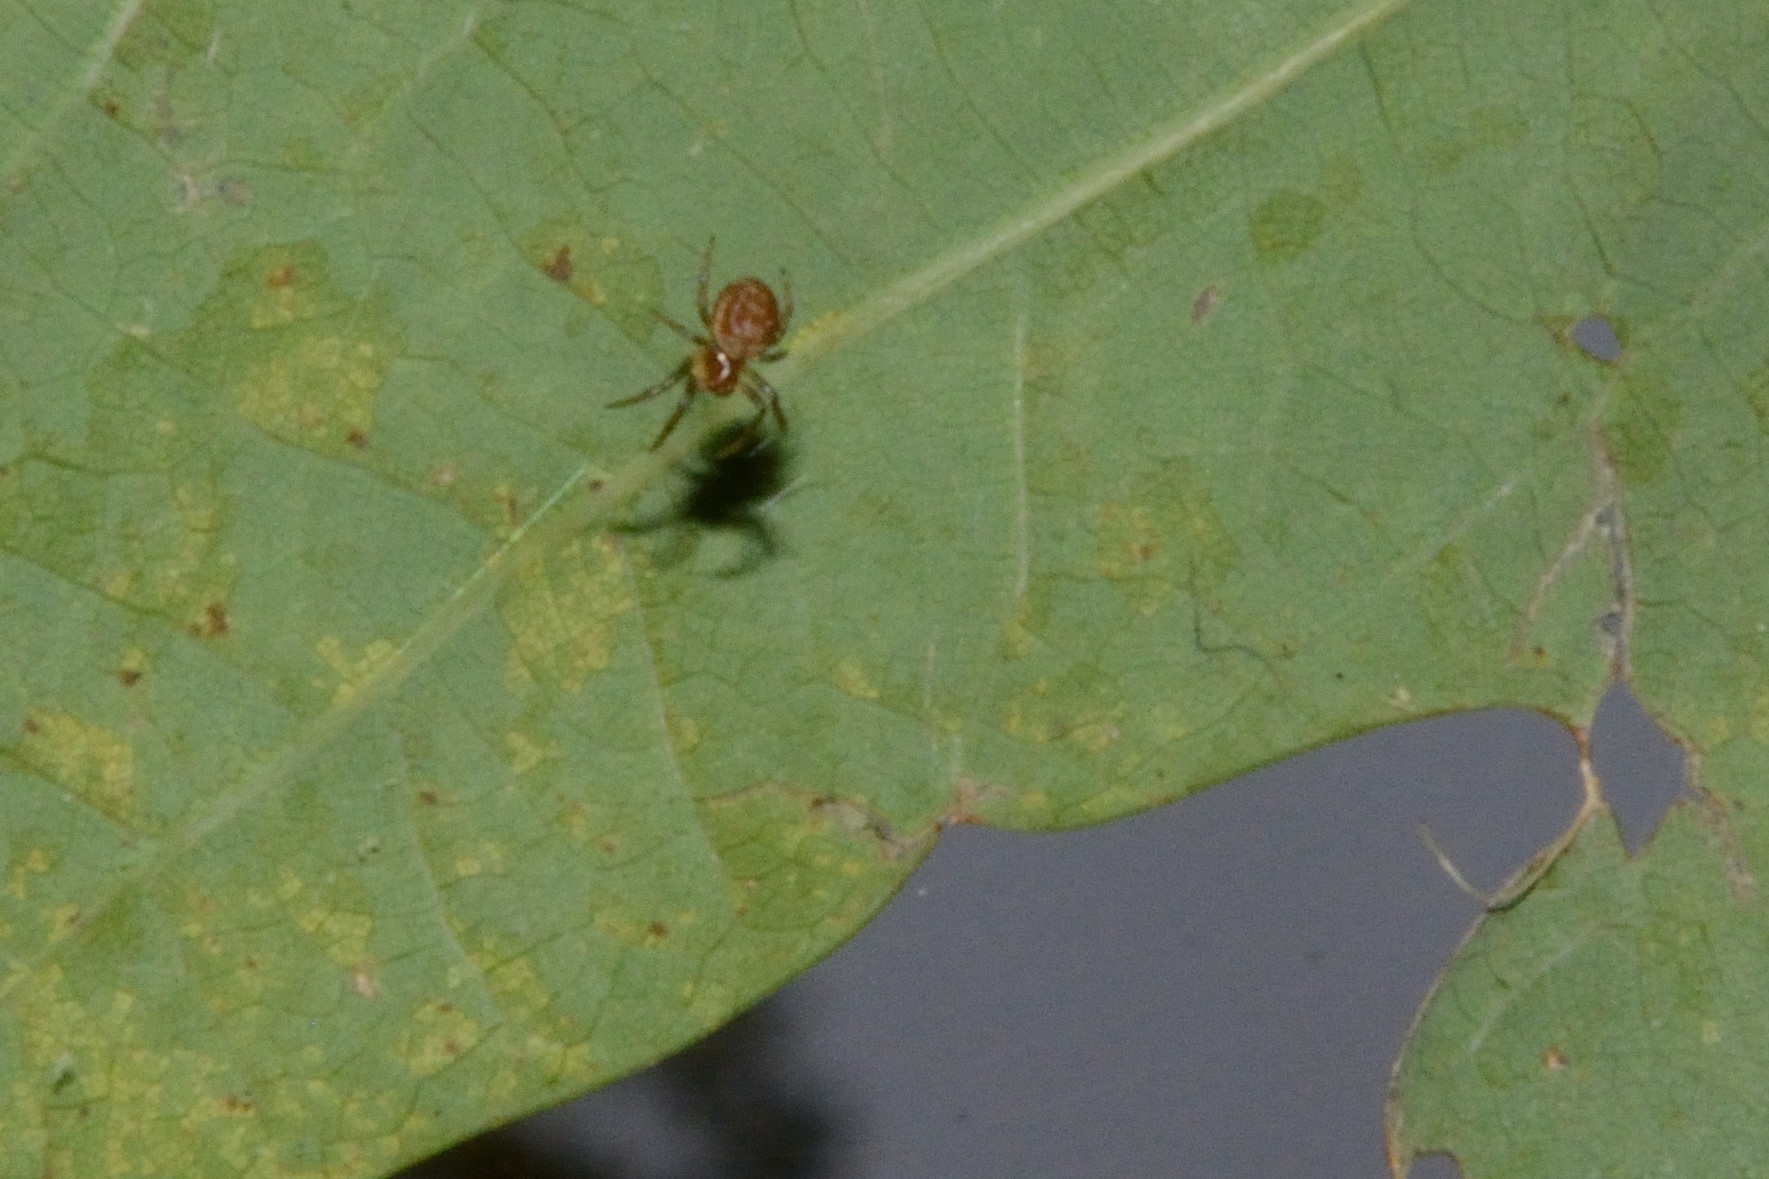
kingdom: Animalia
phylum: Arthropoda
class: Arachnida
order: Araneae
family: Araneidae
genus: Araniella
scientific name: Araniella
